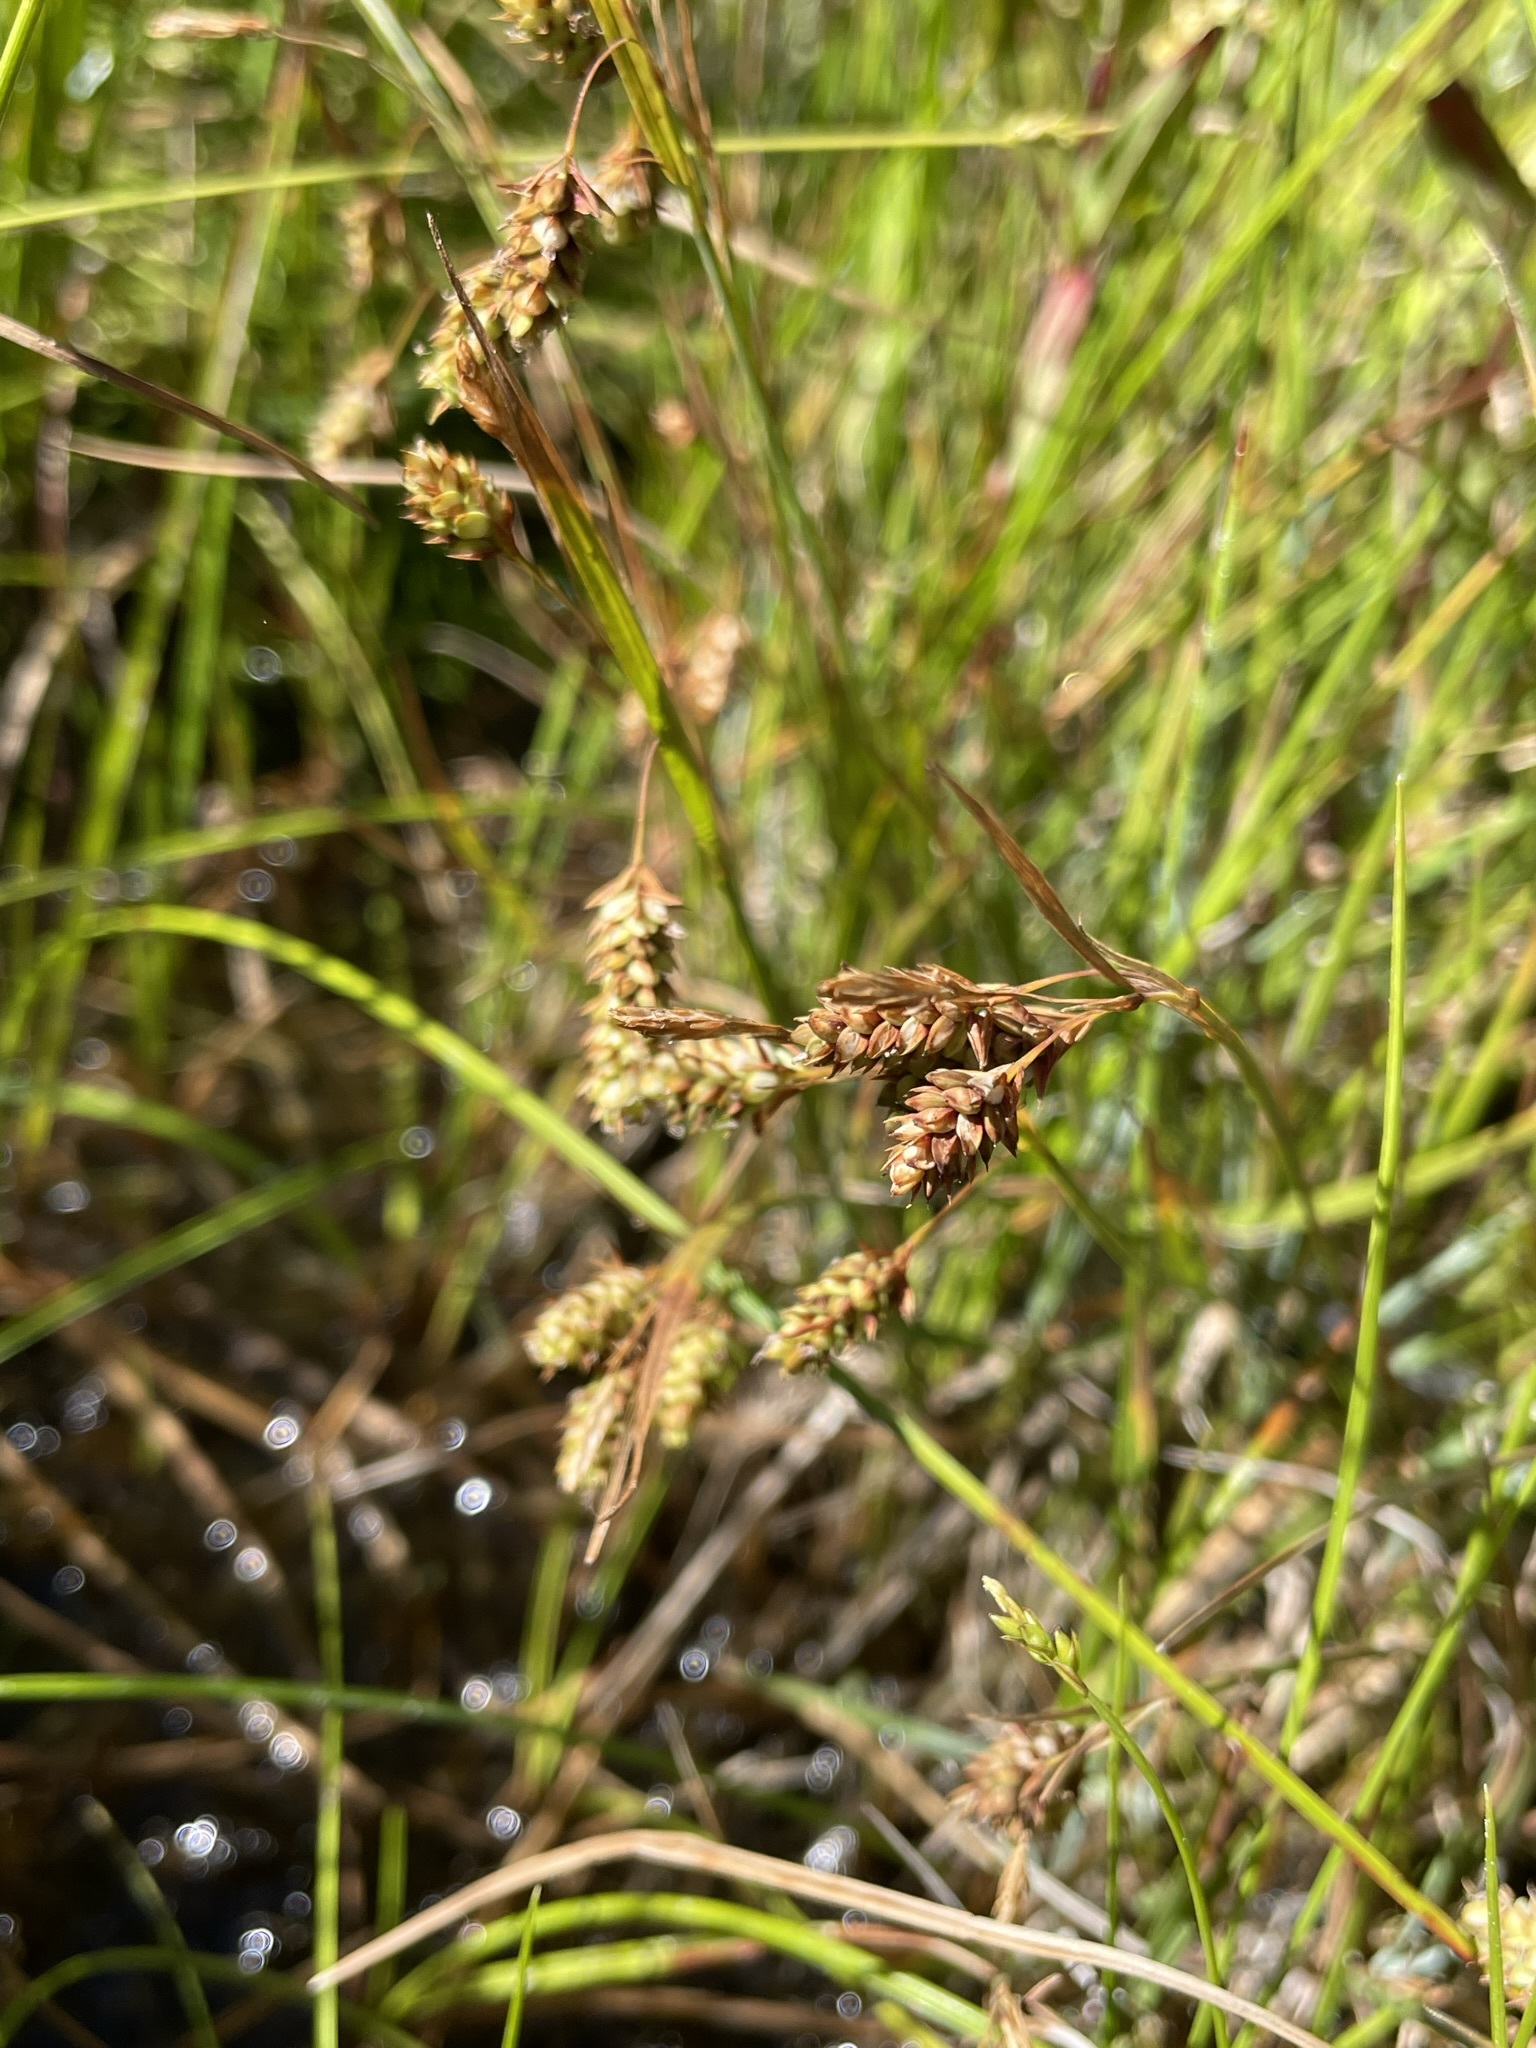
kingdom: Plantae
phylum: Tracheophyta
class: Liliopsida
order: Poales
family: Cyperaceae
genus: Carex
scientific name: Carex magellanica
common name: Bog sedge
